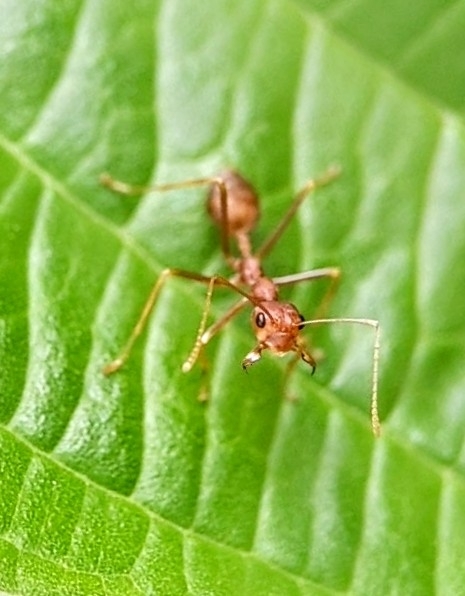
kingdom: Animalia
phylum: Arthropoda
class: Insecta
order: Hymenoptera
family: Formicidae
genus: Oecophylla
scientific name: Oecophylla smaragdina
